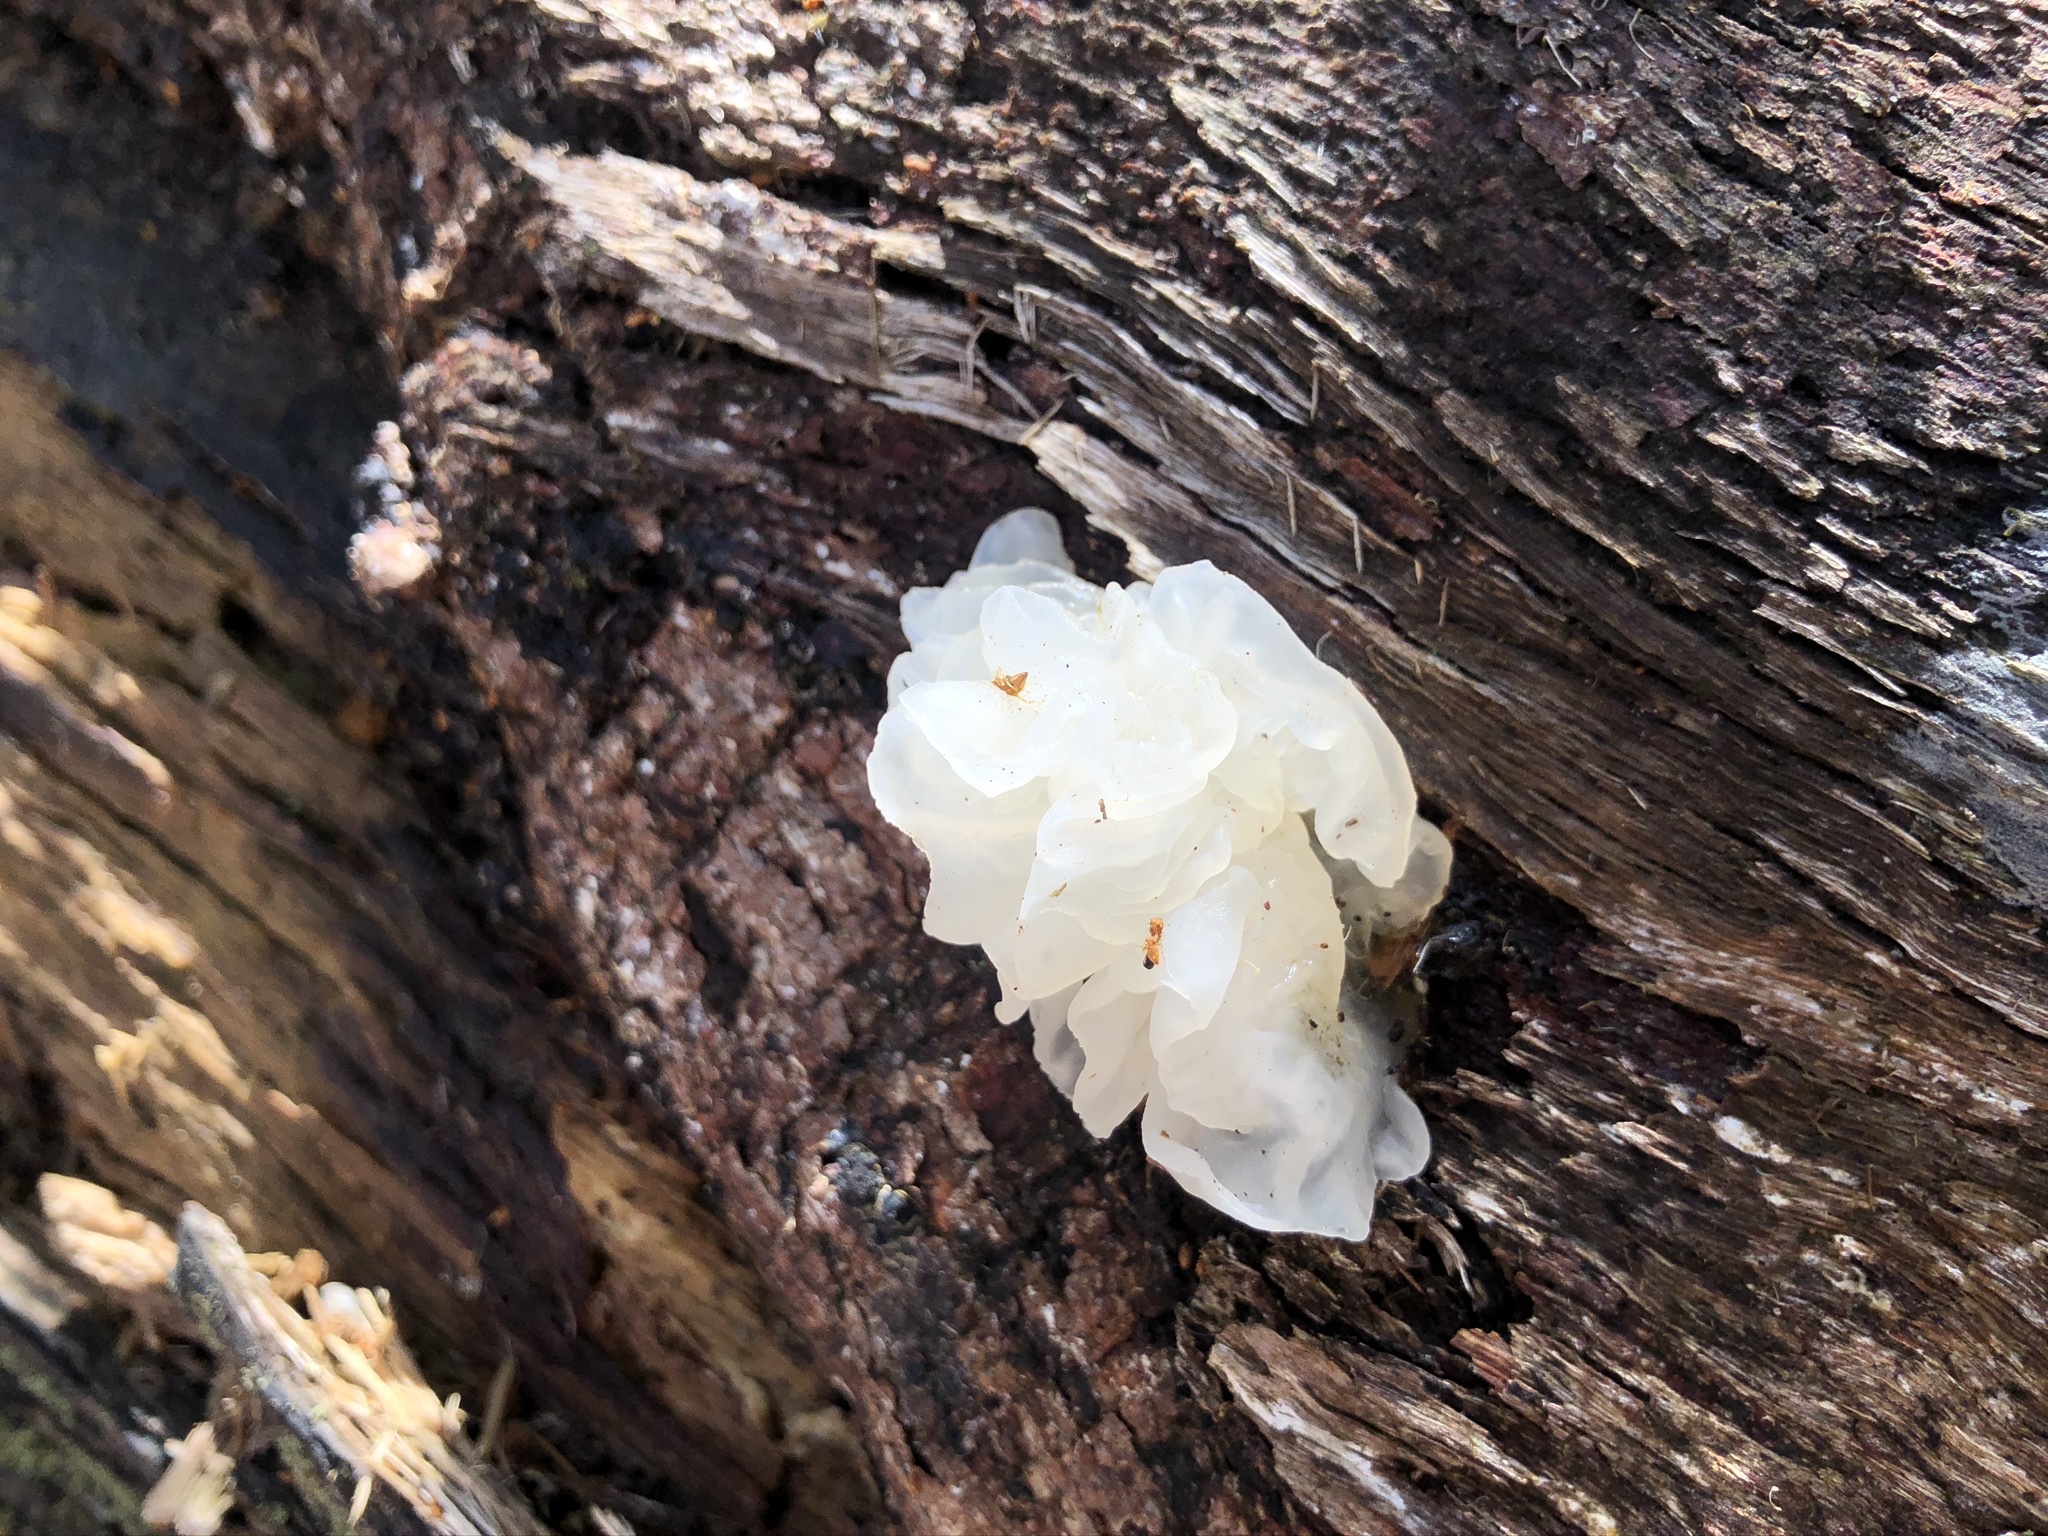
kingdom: Fungi
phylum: Basidiomycota
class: Tremellomycetes
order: Tremellales
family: Tremellaceae
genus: Tremella
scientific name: Tremella fuciformis
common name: Snow fungus
